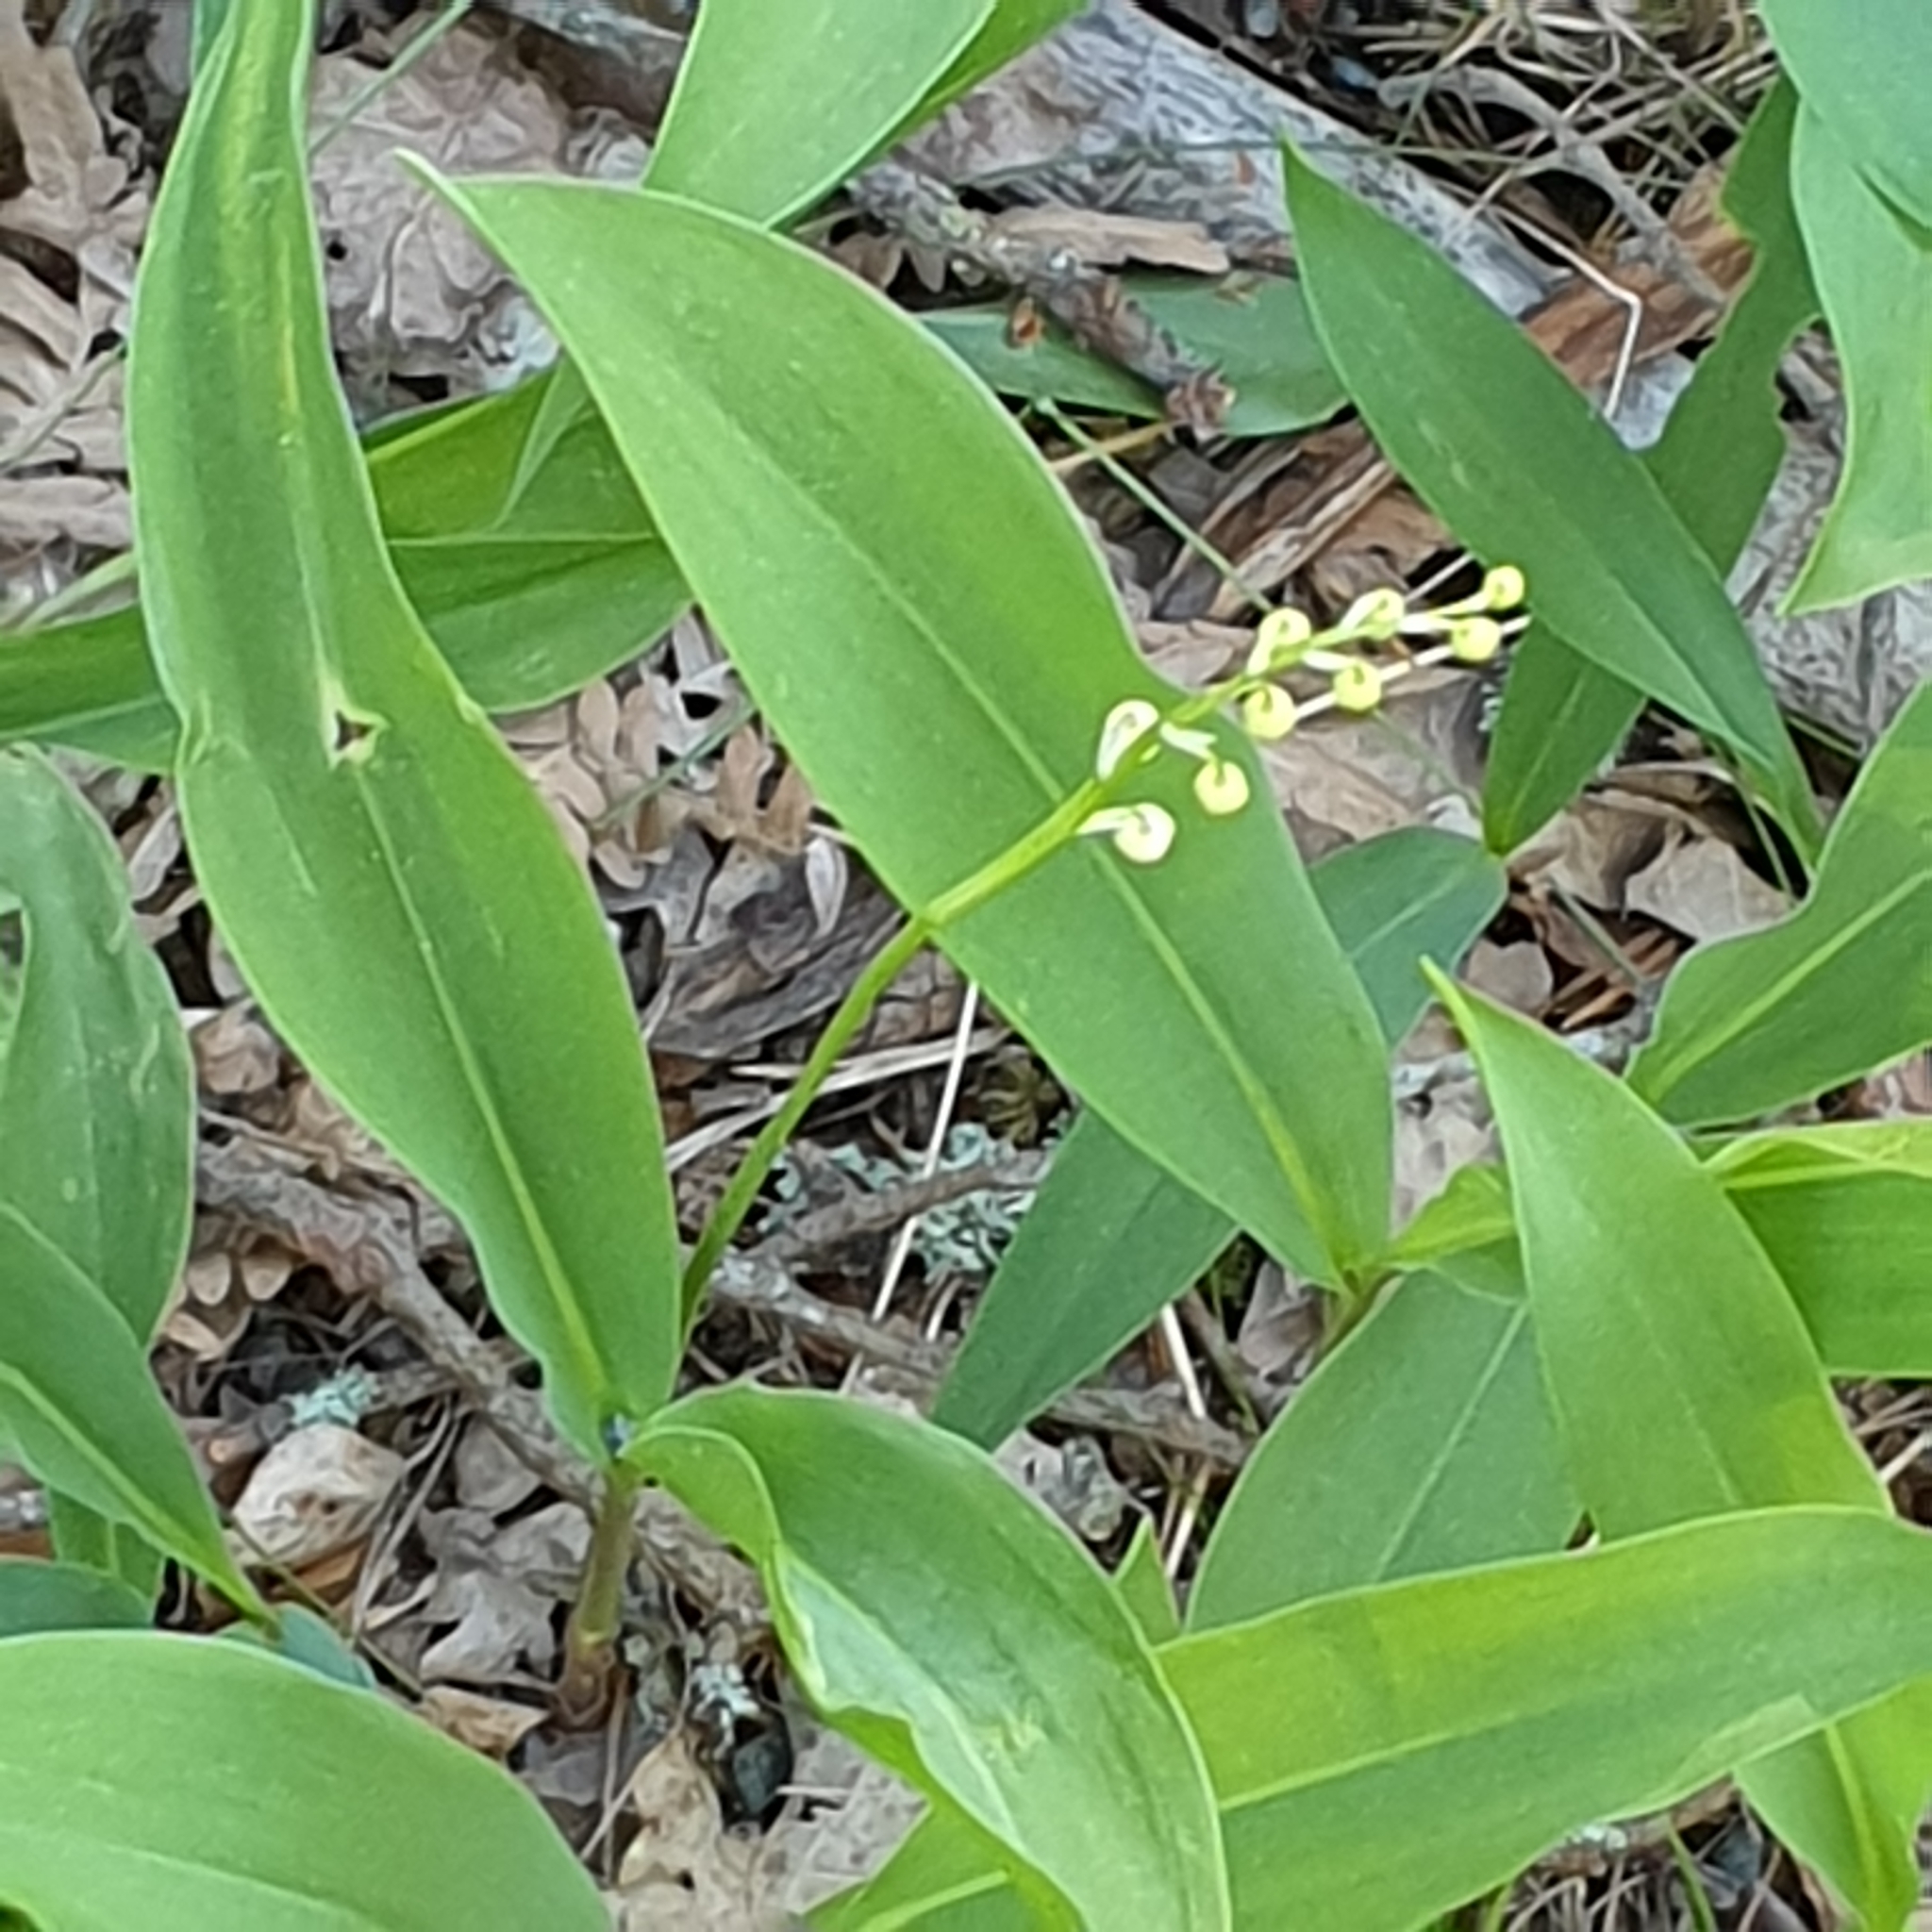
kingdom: Plantae
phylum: Tracheophyta
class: Liliopsida
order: Asparagales
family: Asparagaceae
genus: Convallaria
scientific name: Convallaria majalis
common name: Lily-of-the-valley
